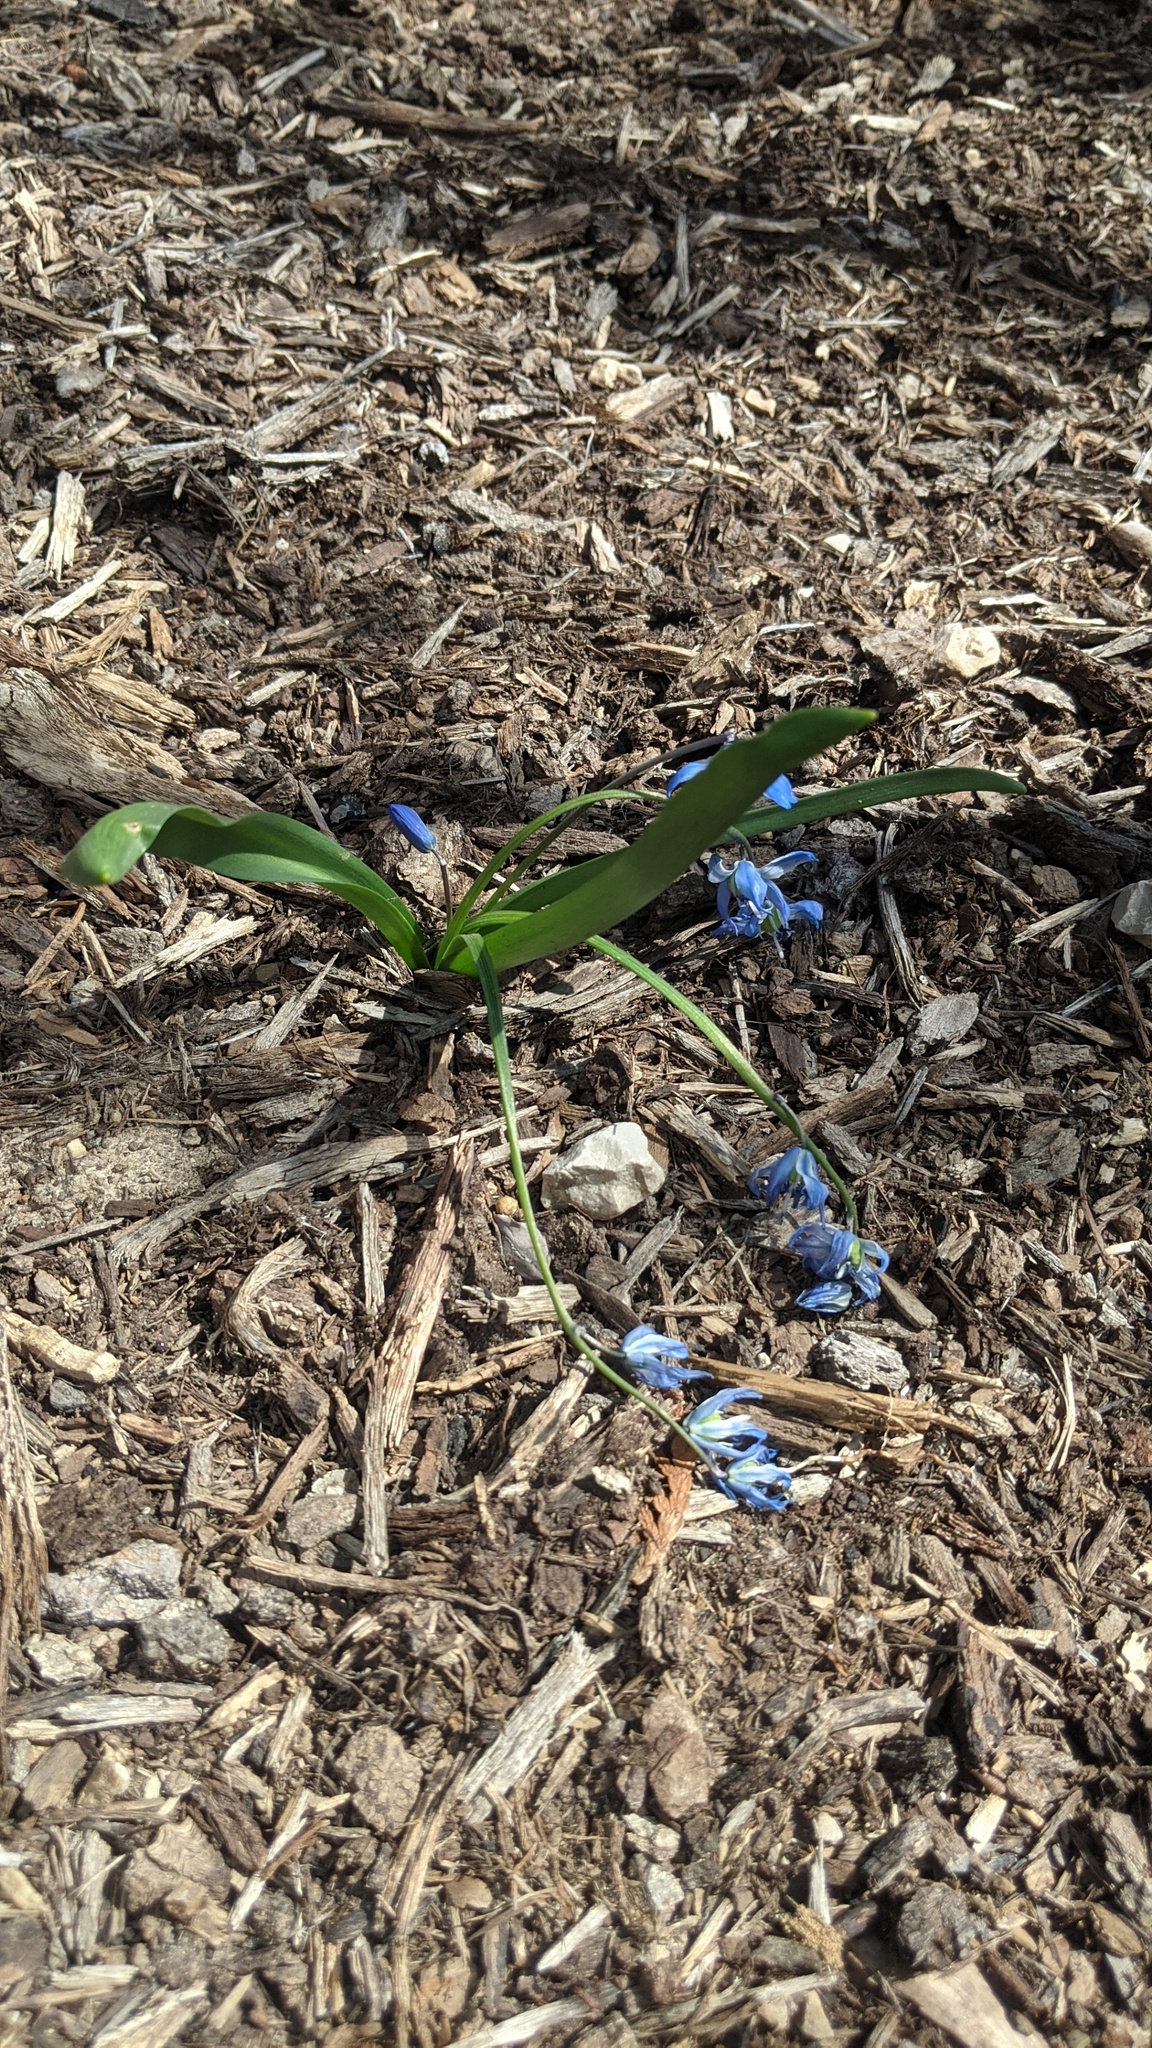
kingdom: Plantae
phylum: Tracheophyta
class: Liliopsida
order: Asparagales
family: Asparagaceae
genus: Scilla
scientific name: Scilla siberica
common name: Siberian squill
